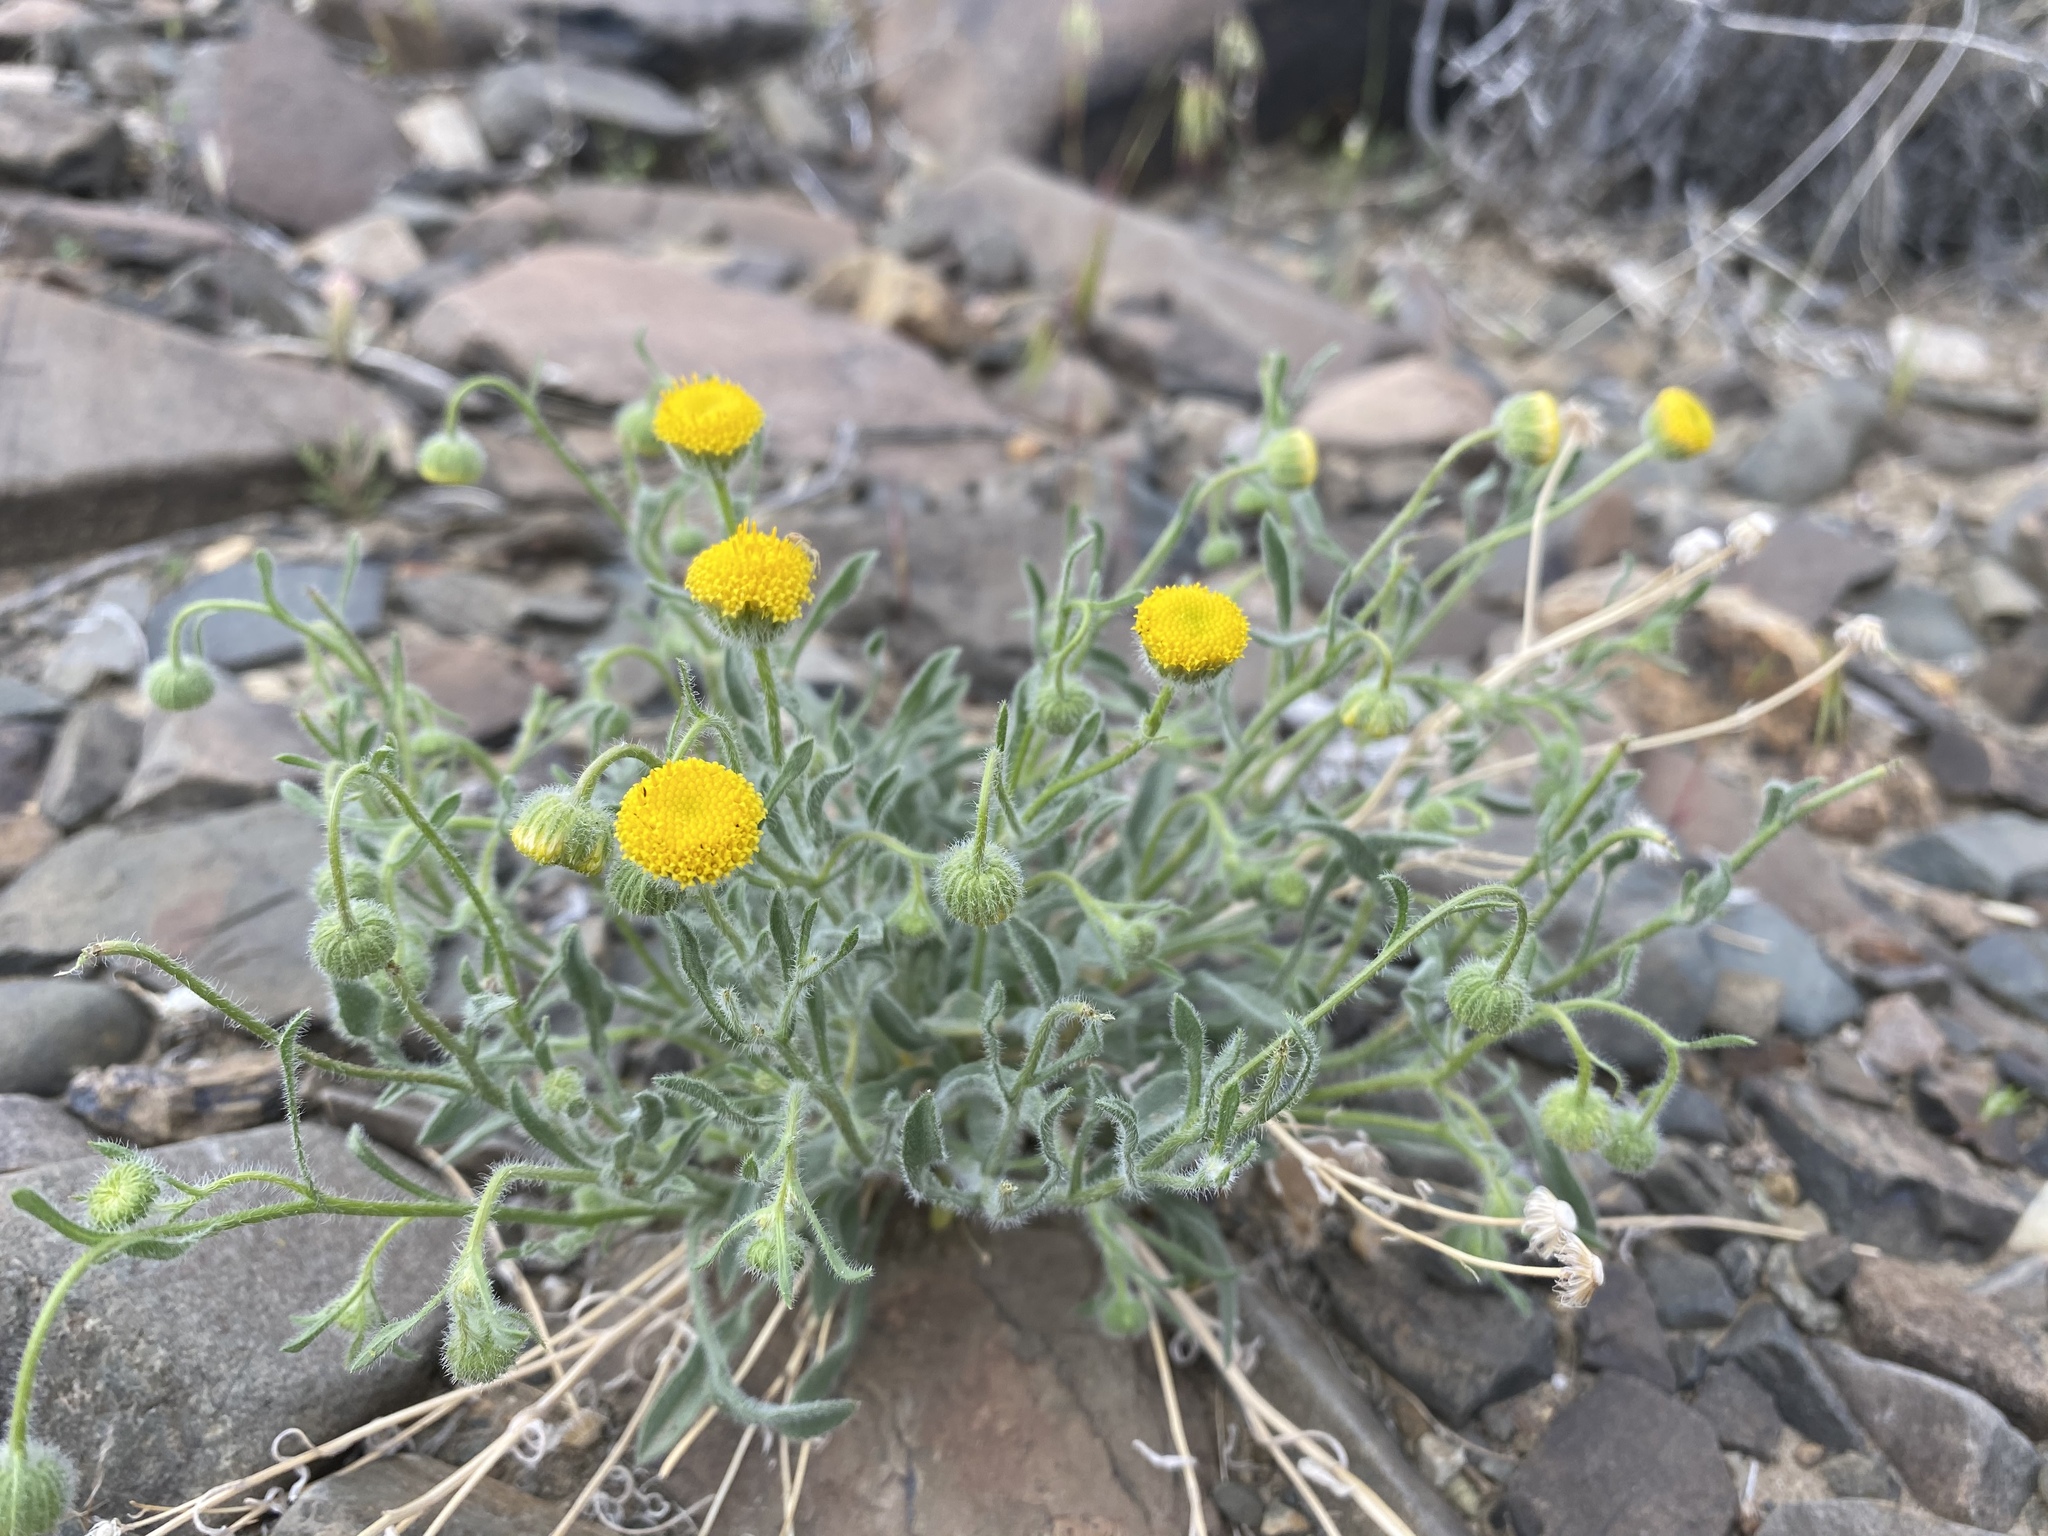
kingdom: Plantae
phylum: Tracheophyta
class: Magnoliopsida
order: Asterales
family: Asteraceae
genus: Erigeron
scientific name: Erigeron aphanactis
